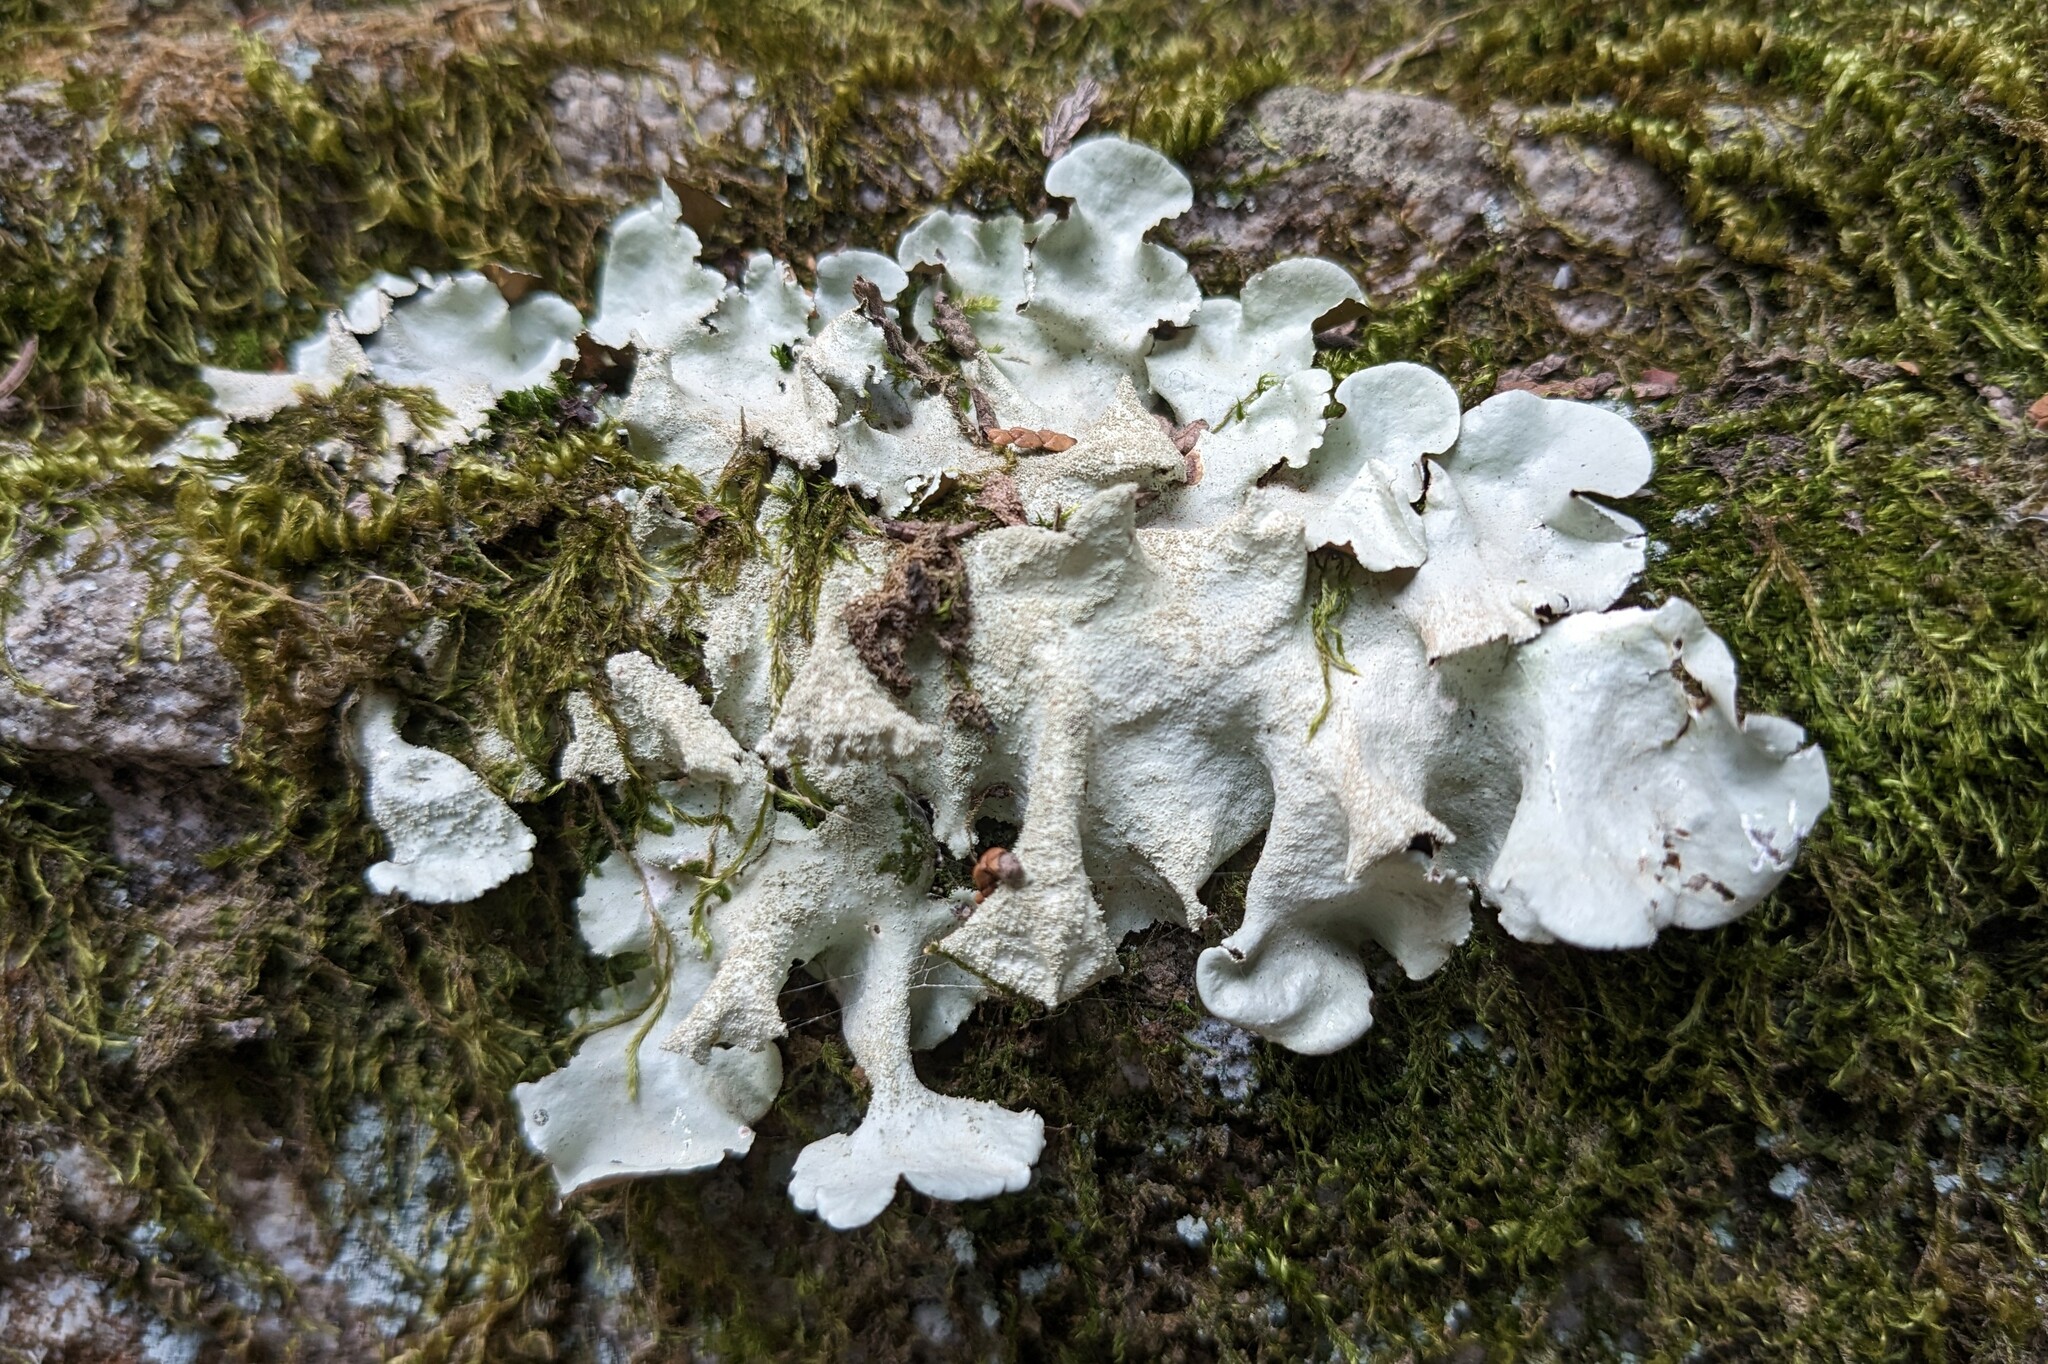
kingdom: Fungi
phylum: Ascomycota
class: Lecanoromycetes
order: Lecanorales
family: Parmeliaceae
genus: Parmotrema
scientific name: Parmotrema tinctorum
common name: Old gray ruffles
